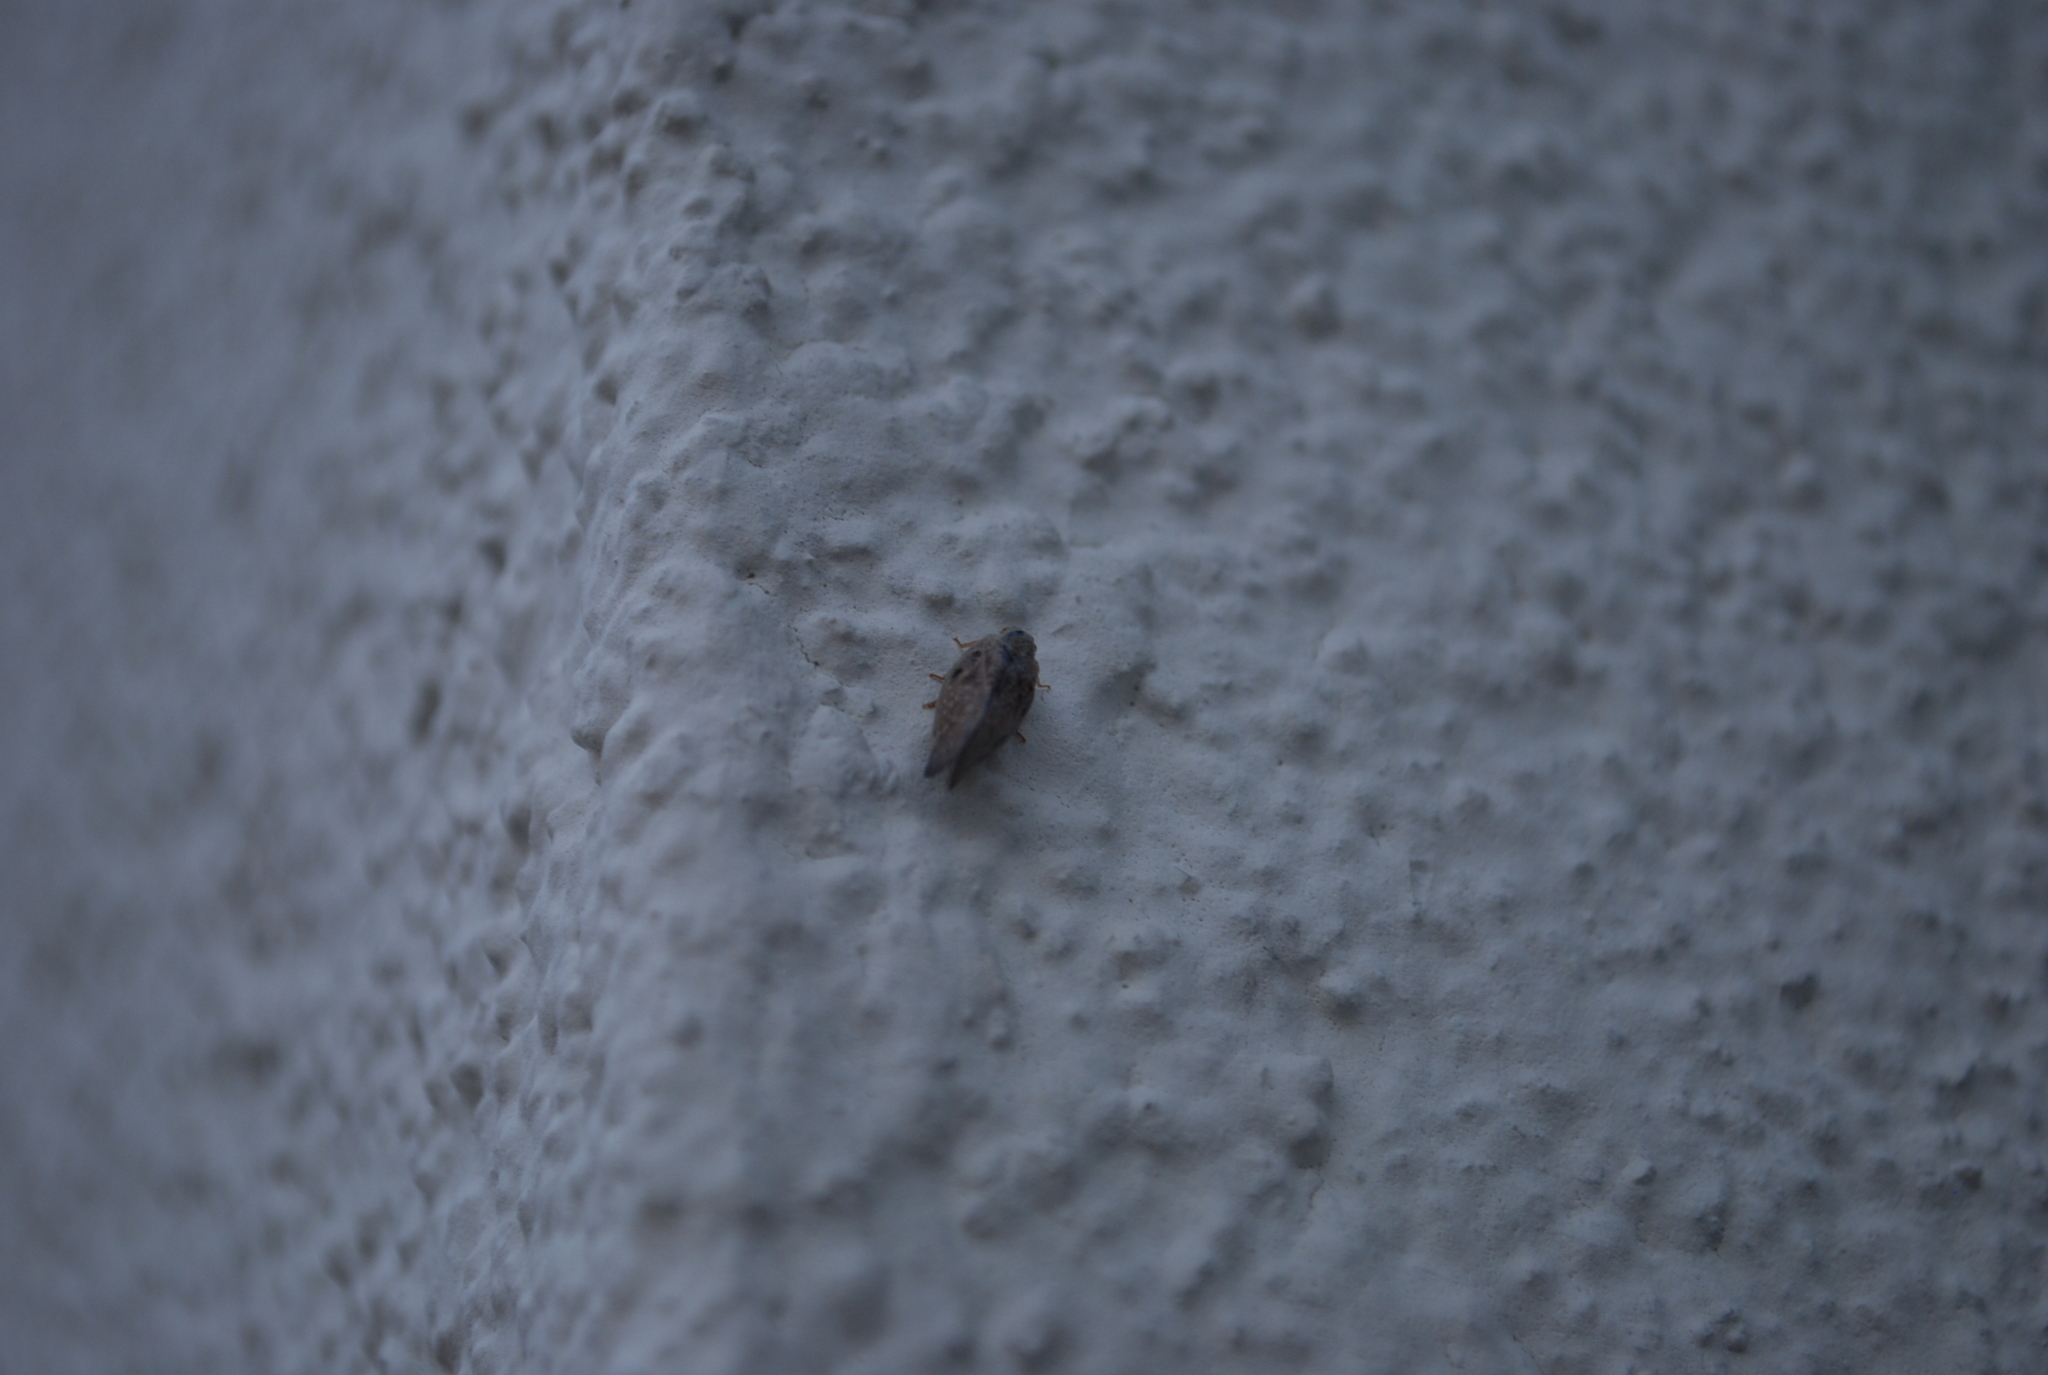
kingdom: Animalia
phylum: Arthropoda
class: Insecta
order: Hemiptera
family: Flatidae
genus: Metcalfa
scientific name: Metcalfa pruinosa
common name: Citrus flatid planthopper
